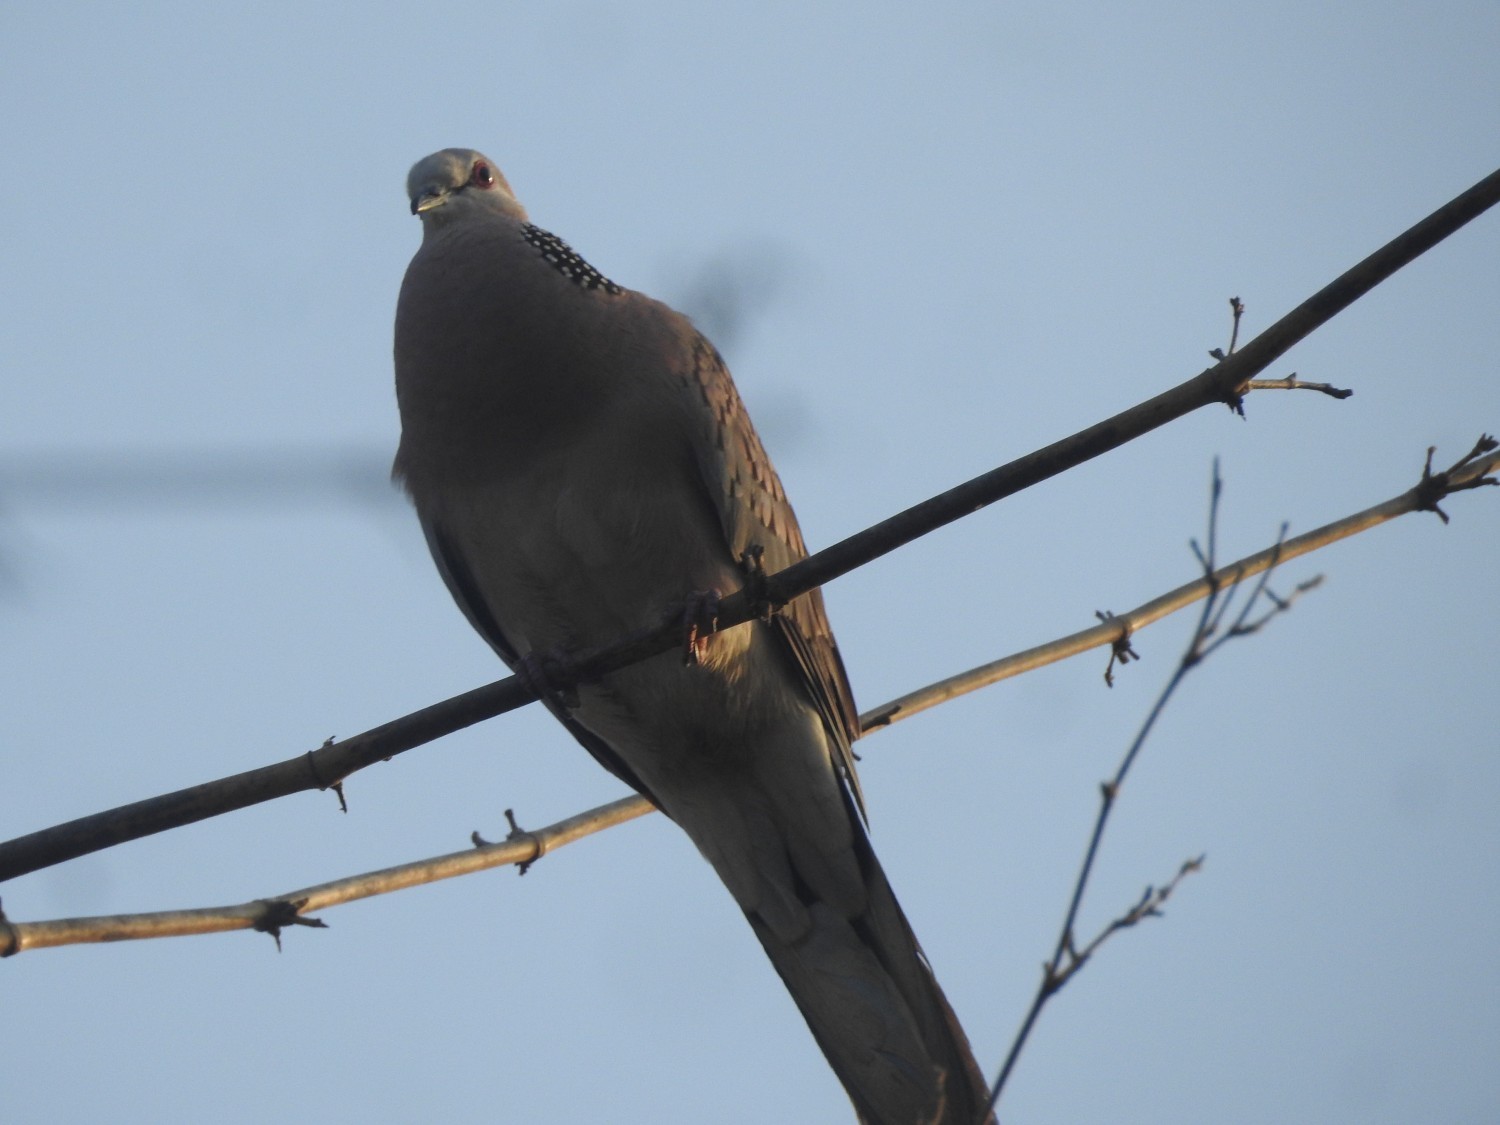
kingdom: Animalia
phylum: Chordata
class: Aves
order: Columbiformes
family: Columbidae
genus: Spilopelia
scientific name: Spilopelia chinensis
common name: Spotted dove
